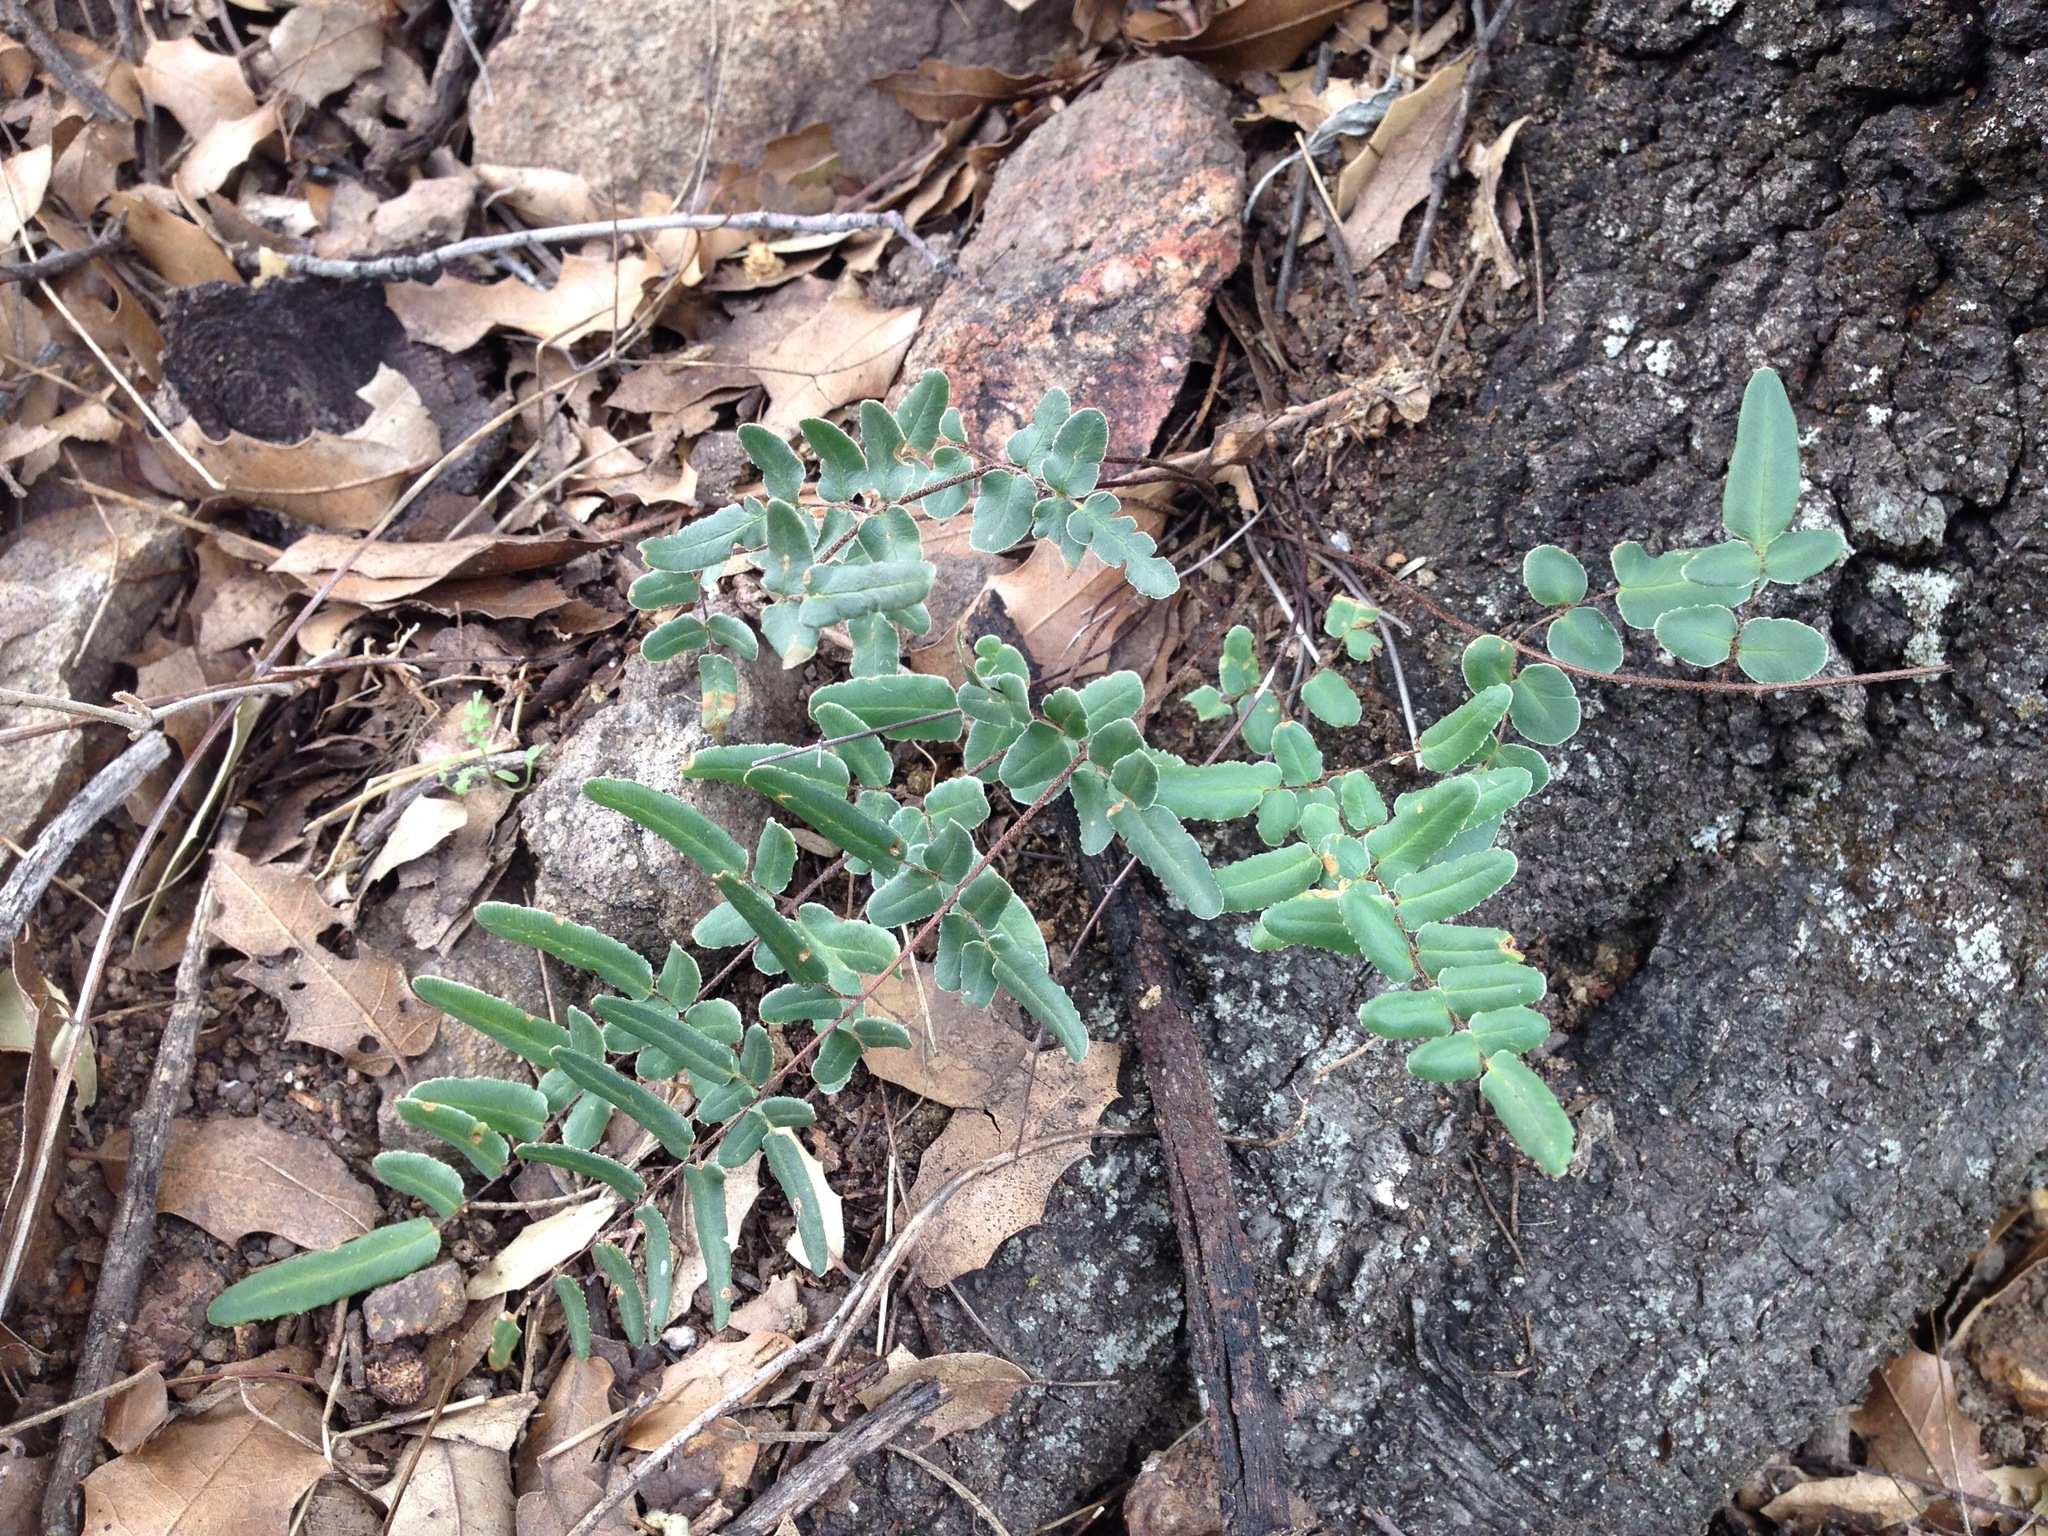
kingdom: Plantae
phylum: Tracheophyta
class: Polypodiopsida
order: Polypodiales
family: Pteridaceae
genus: Pellaea
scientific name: Pellaea atropurpurea
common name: Hairy cliffbrake
